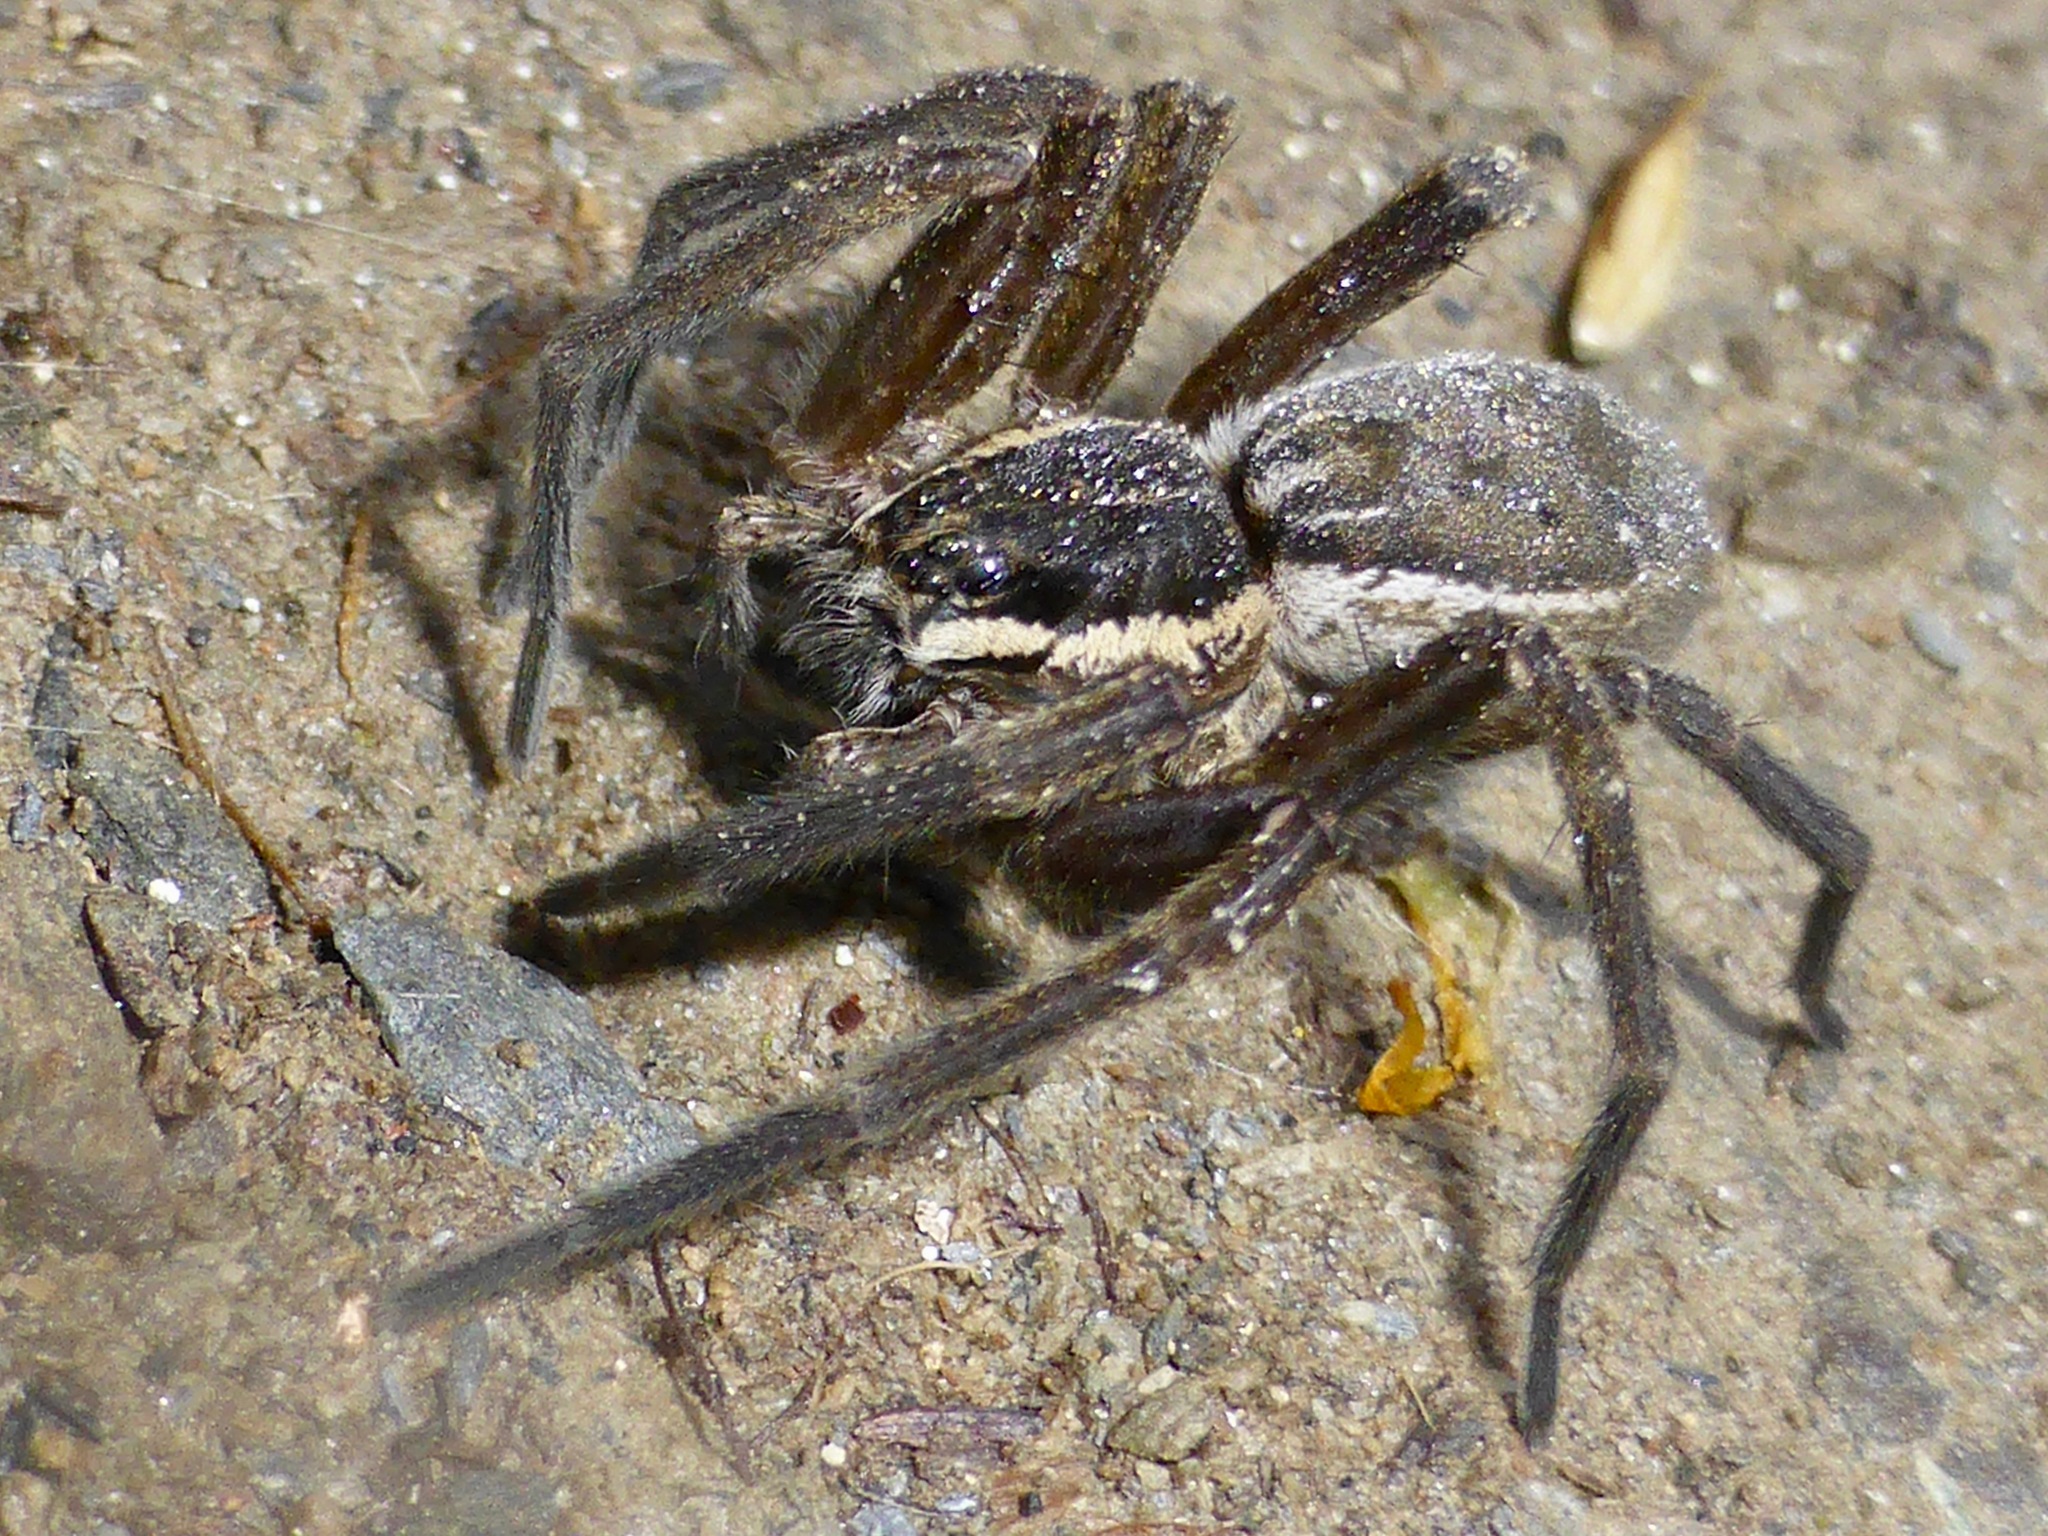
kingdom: Animalia
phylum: Arthropoda
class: Arachnida
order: Araneae
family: Pisauridae
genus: Dolomedes
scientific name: Dolomedes aquaticus
